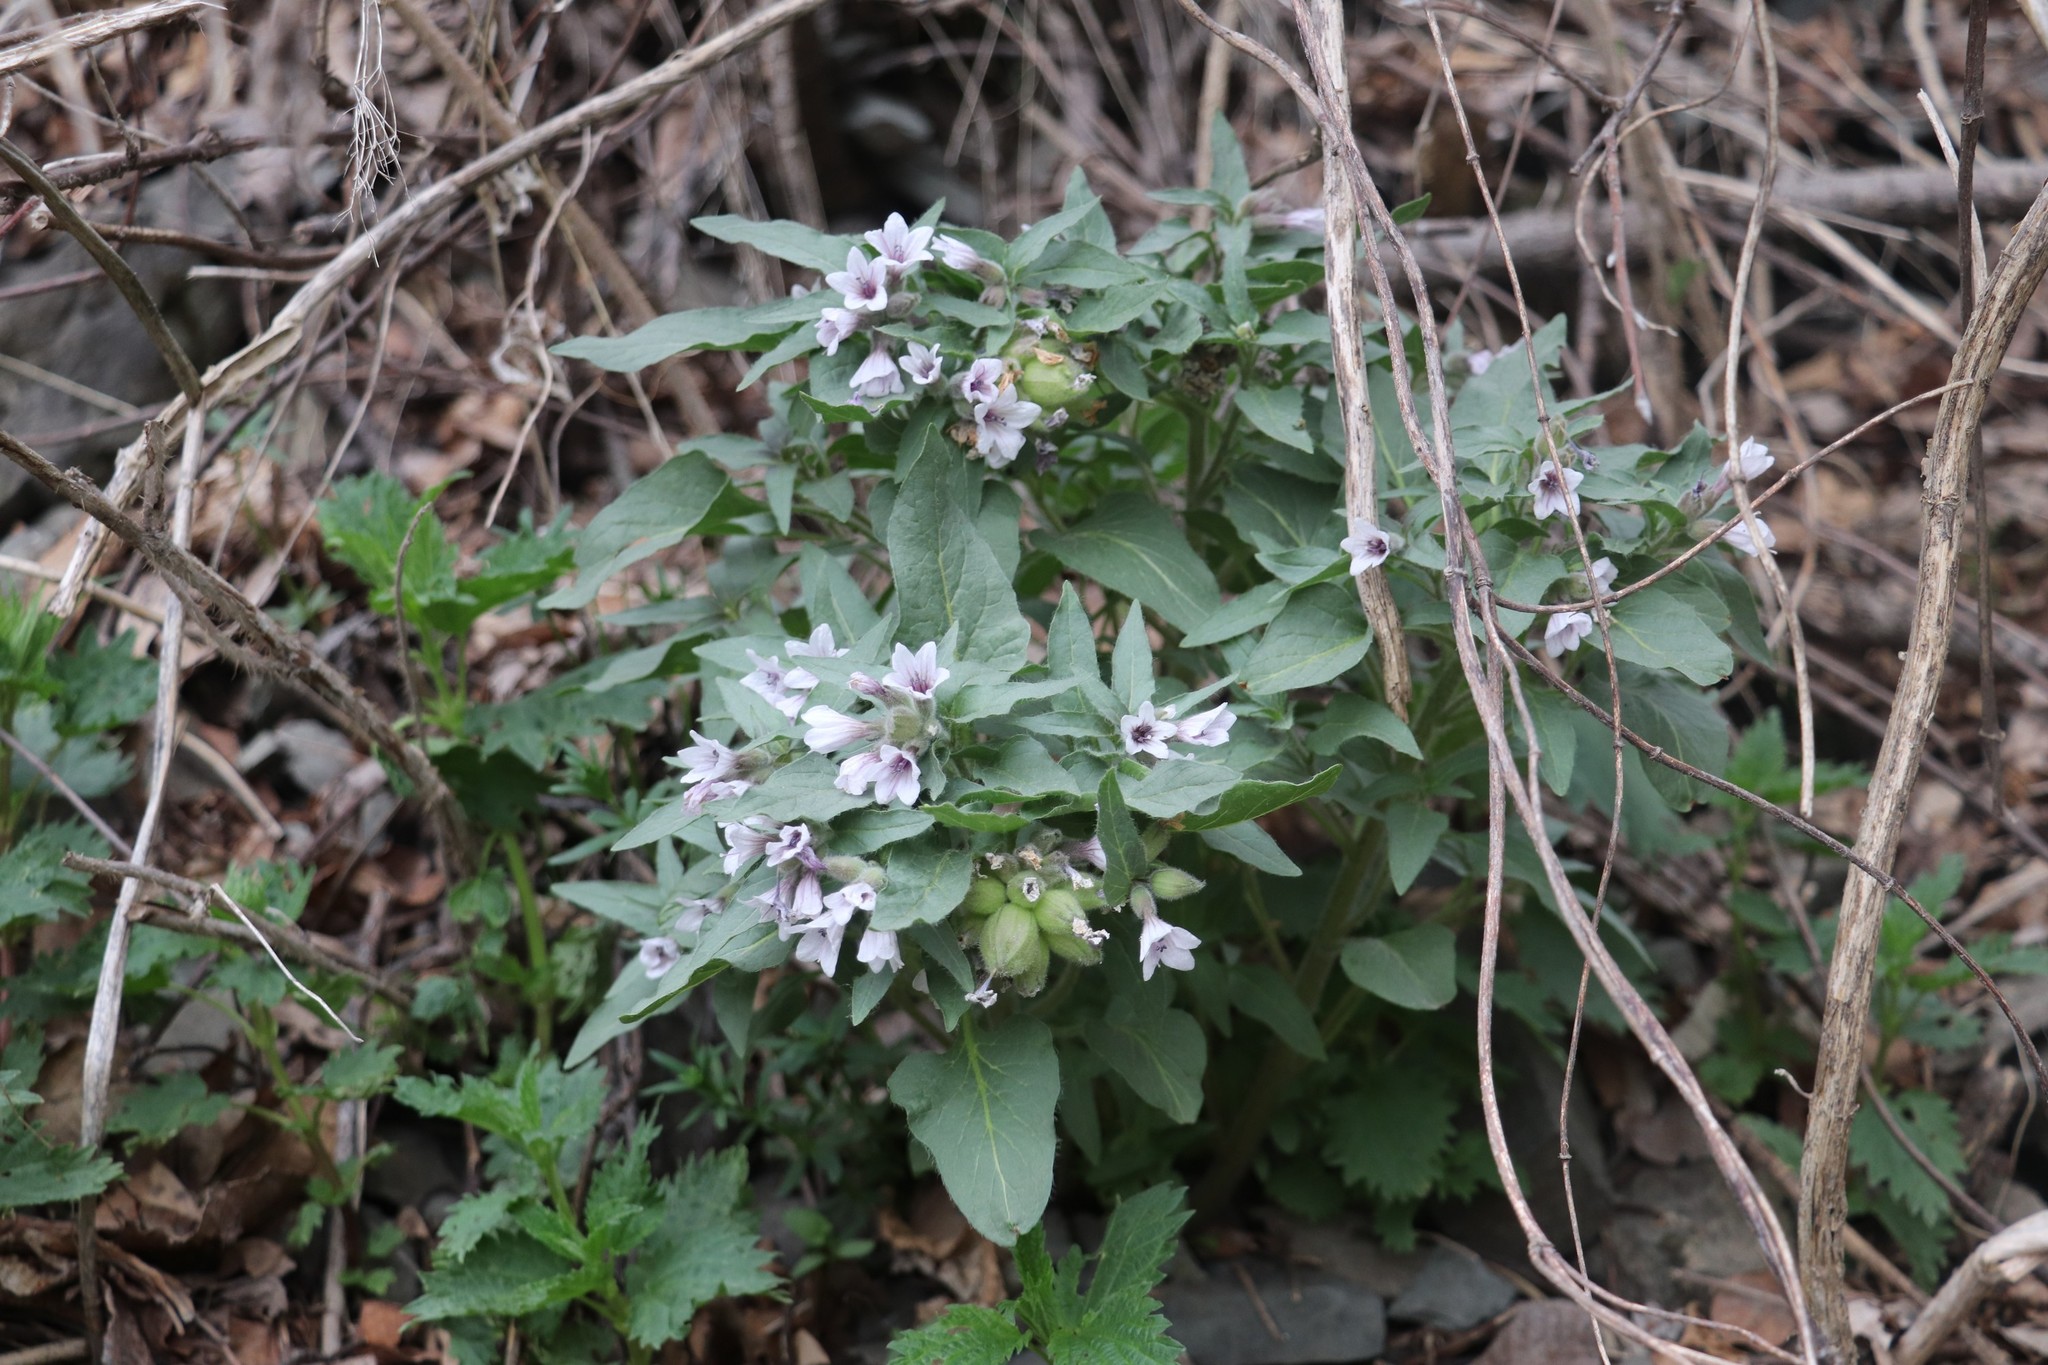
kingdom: Plantae
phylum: Tracheophyta
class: Magnoliopsida
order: Solanales
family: Solanaceae
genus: Physochlaina
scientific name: Physochlaina physaloides
